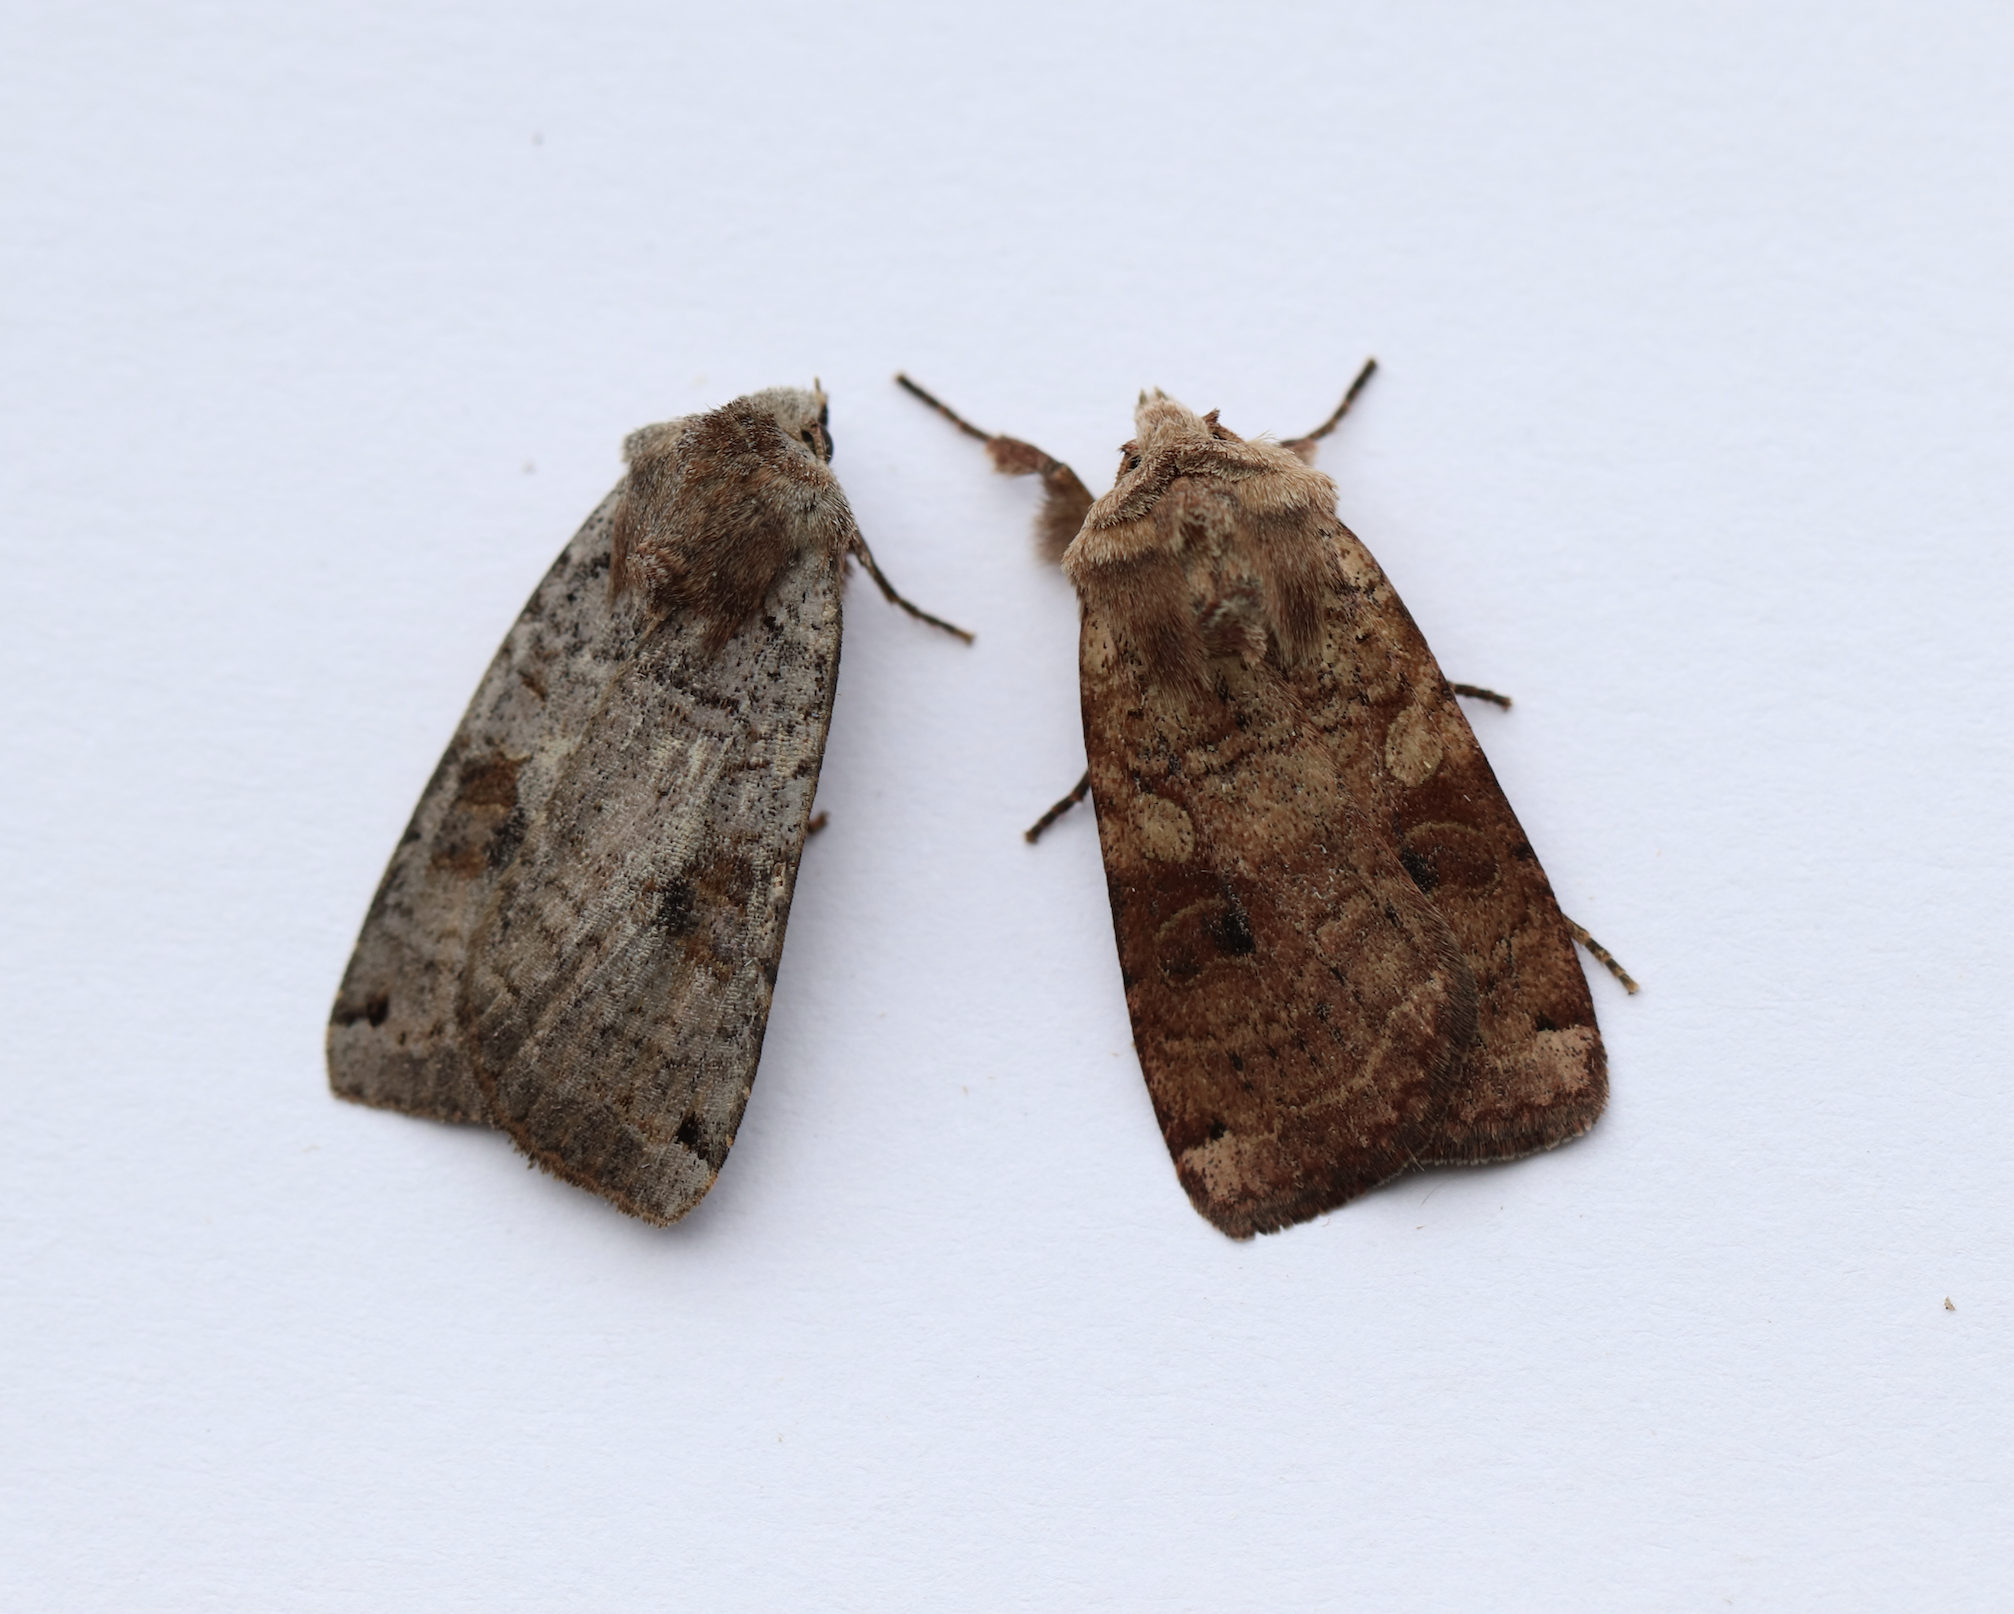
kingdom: Animalia
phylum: Arthropoda
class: Insecta
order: Lepidoptera
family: Noctuidae
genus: Xestia
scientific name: Xestia smithii
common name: Smith's dart
